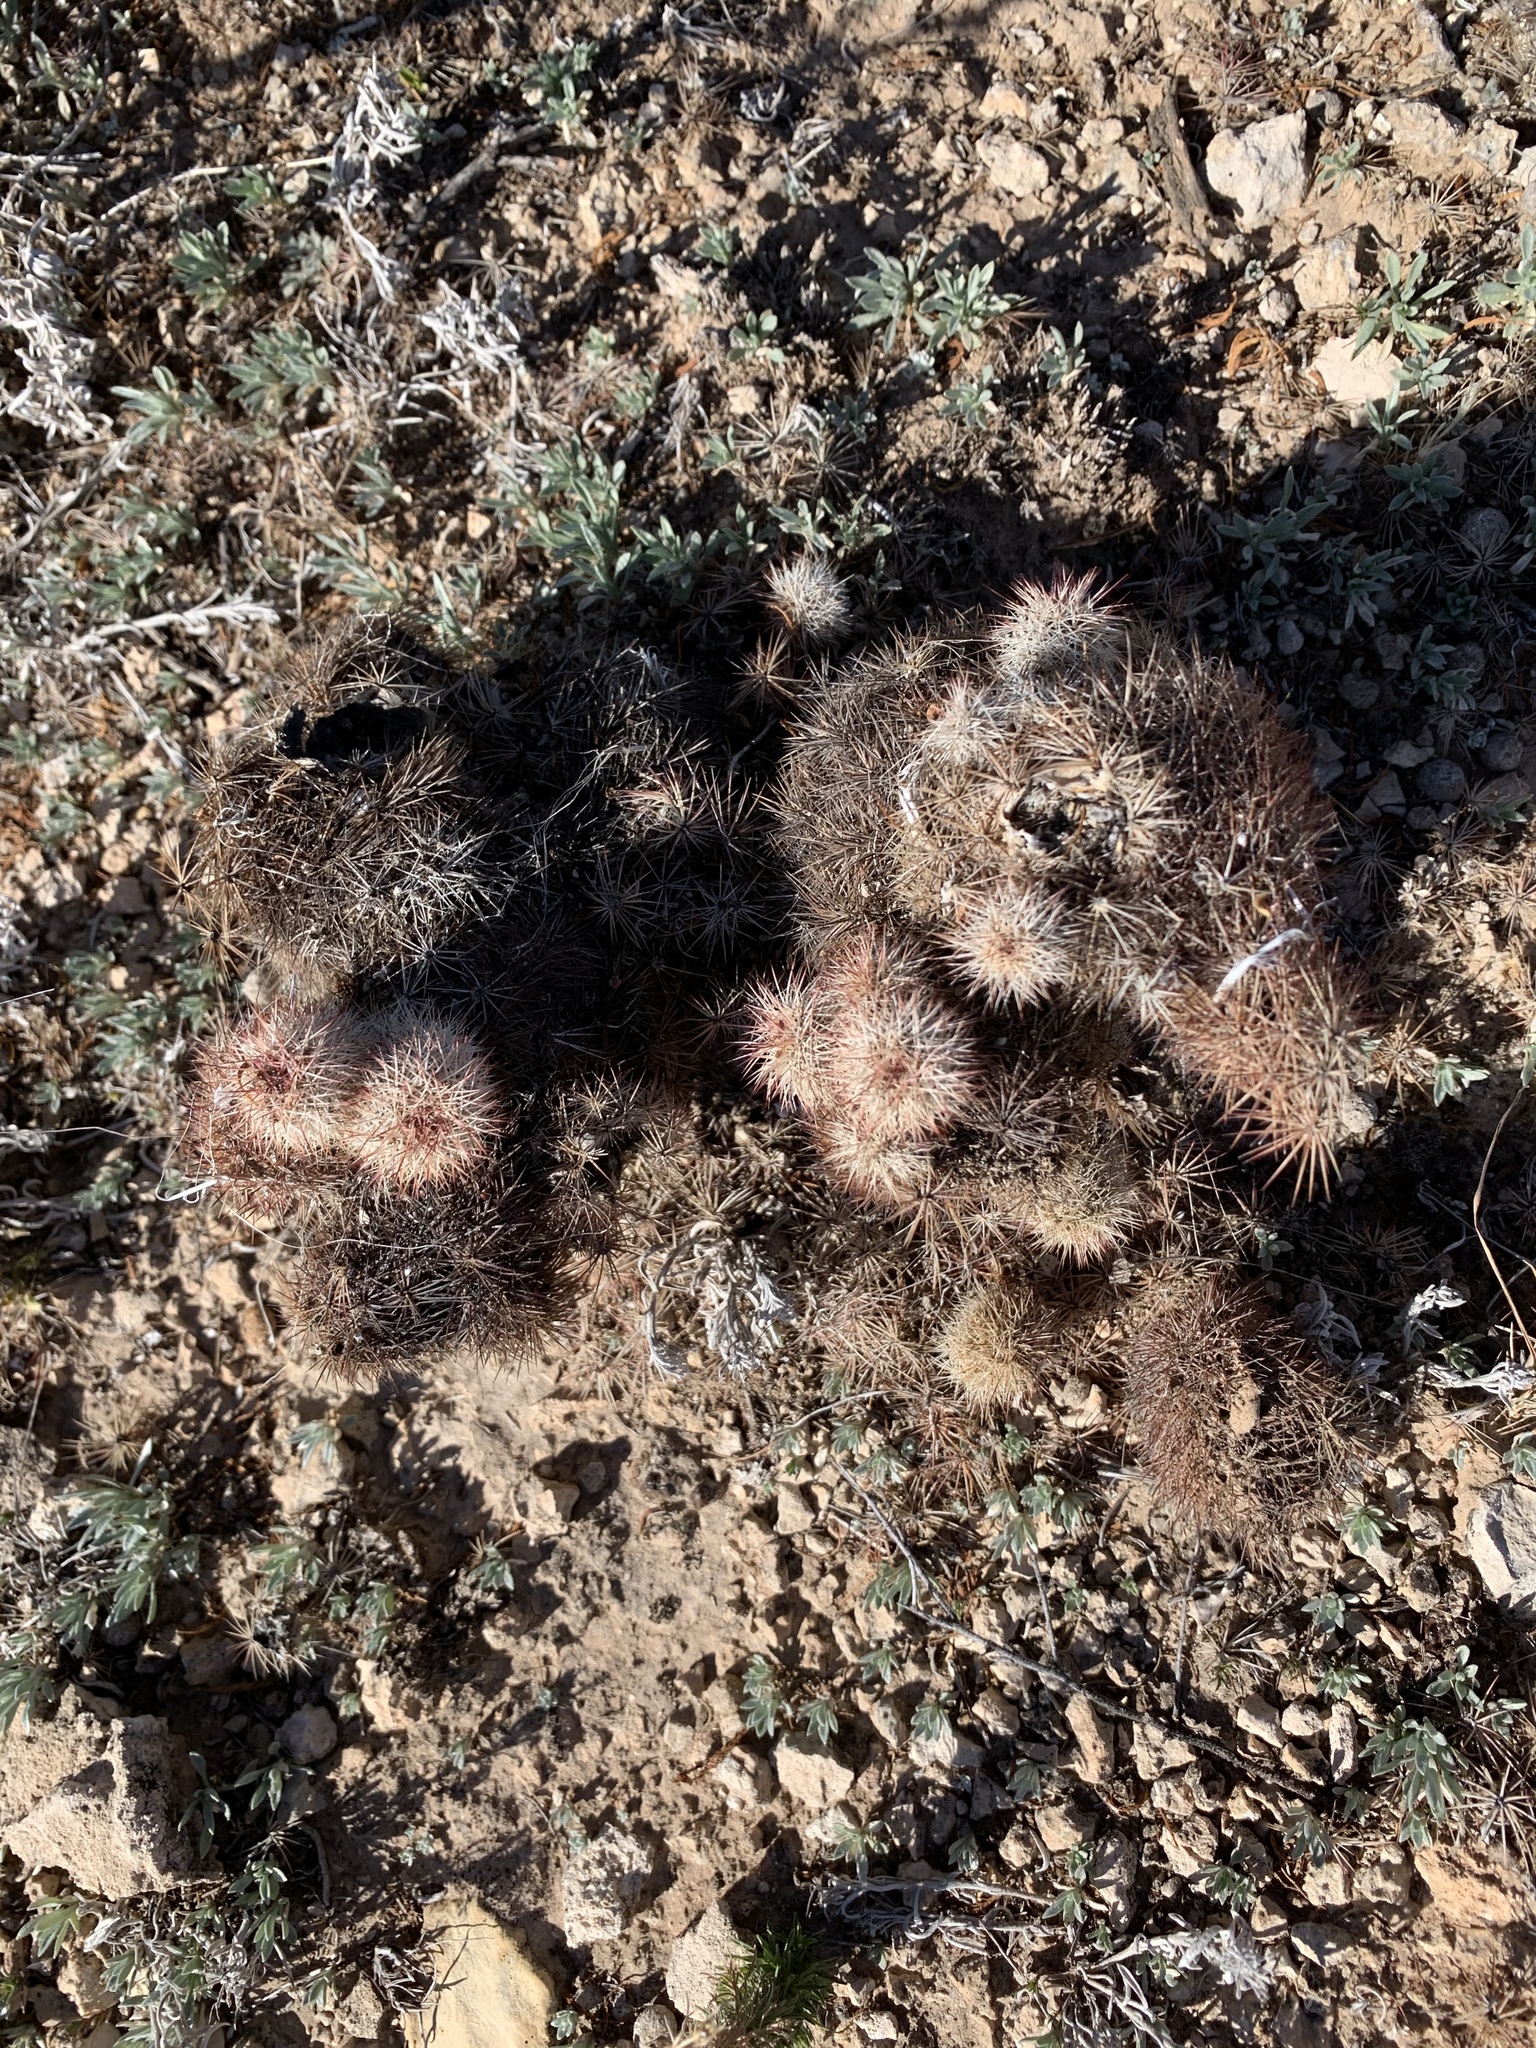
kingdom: Plantae
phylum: Tracheophyta
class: Magnoliopsida
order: Caryophyllales
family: Cactaceae
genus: Echinocereus
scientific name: Echinocereus dasyacanthus
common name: Spiny hedgehog cactus
